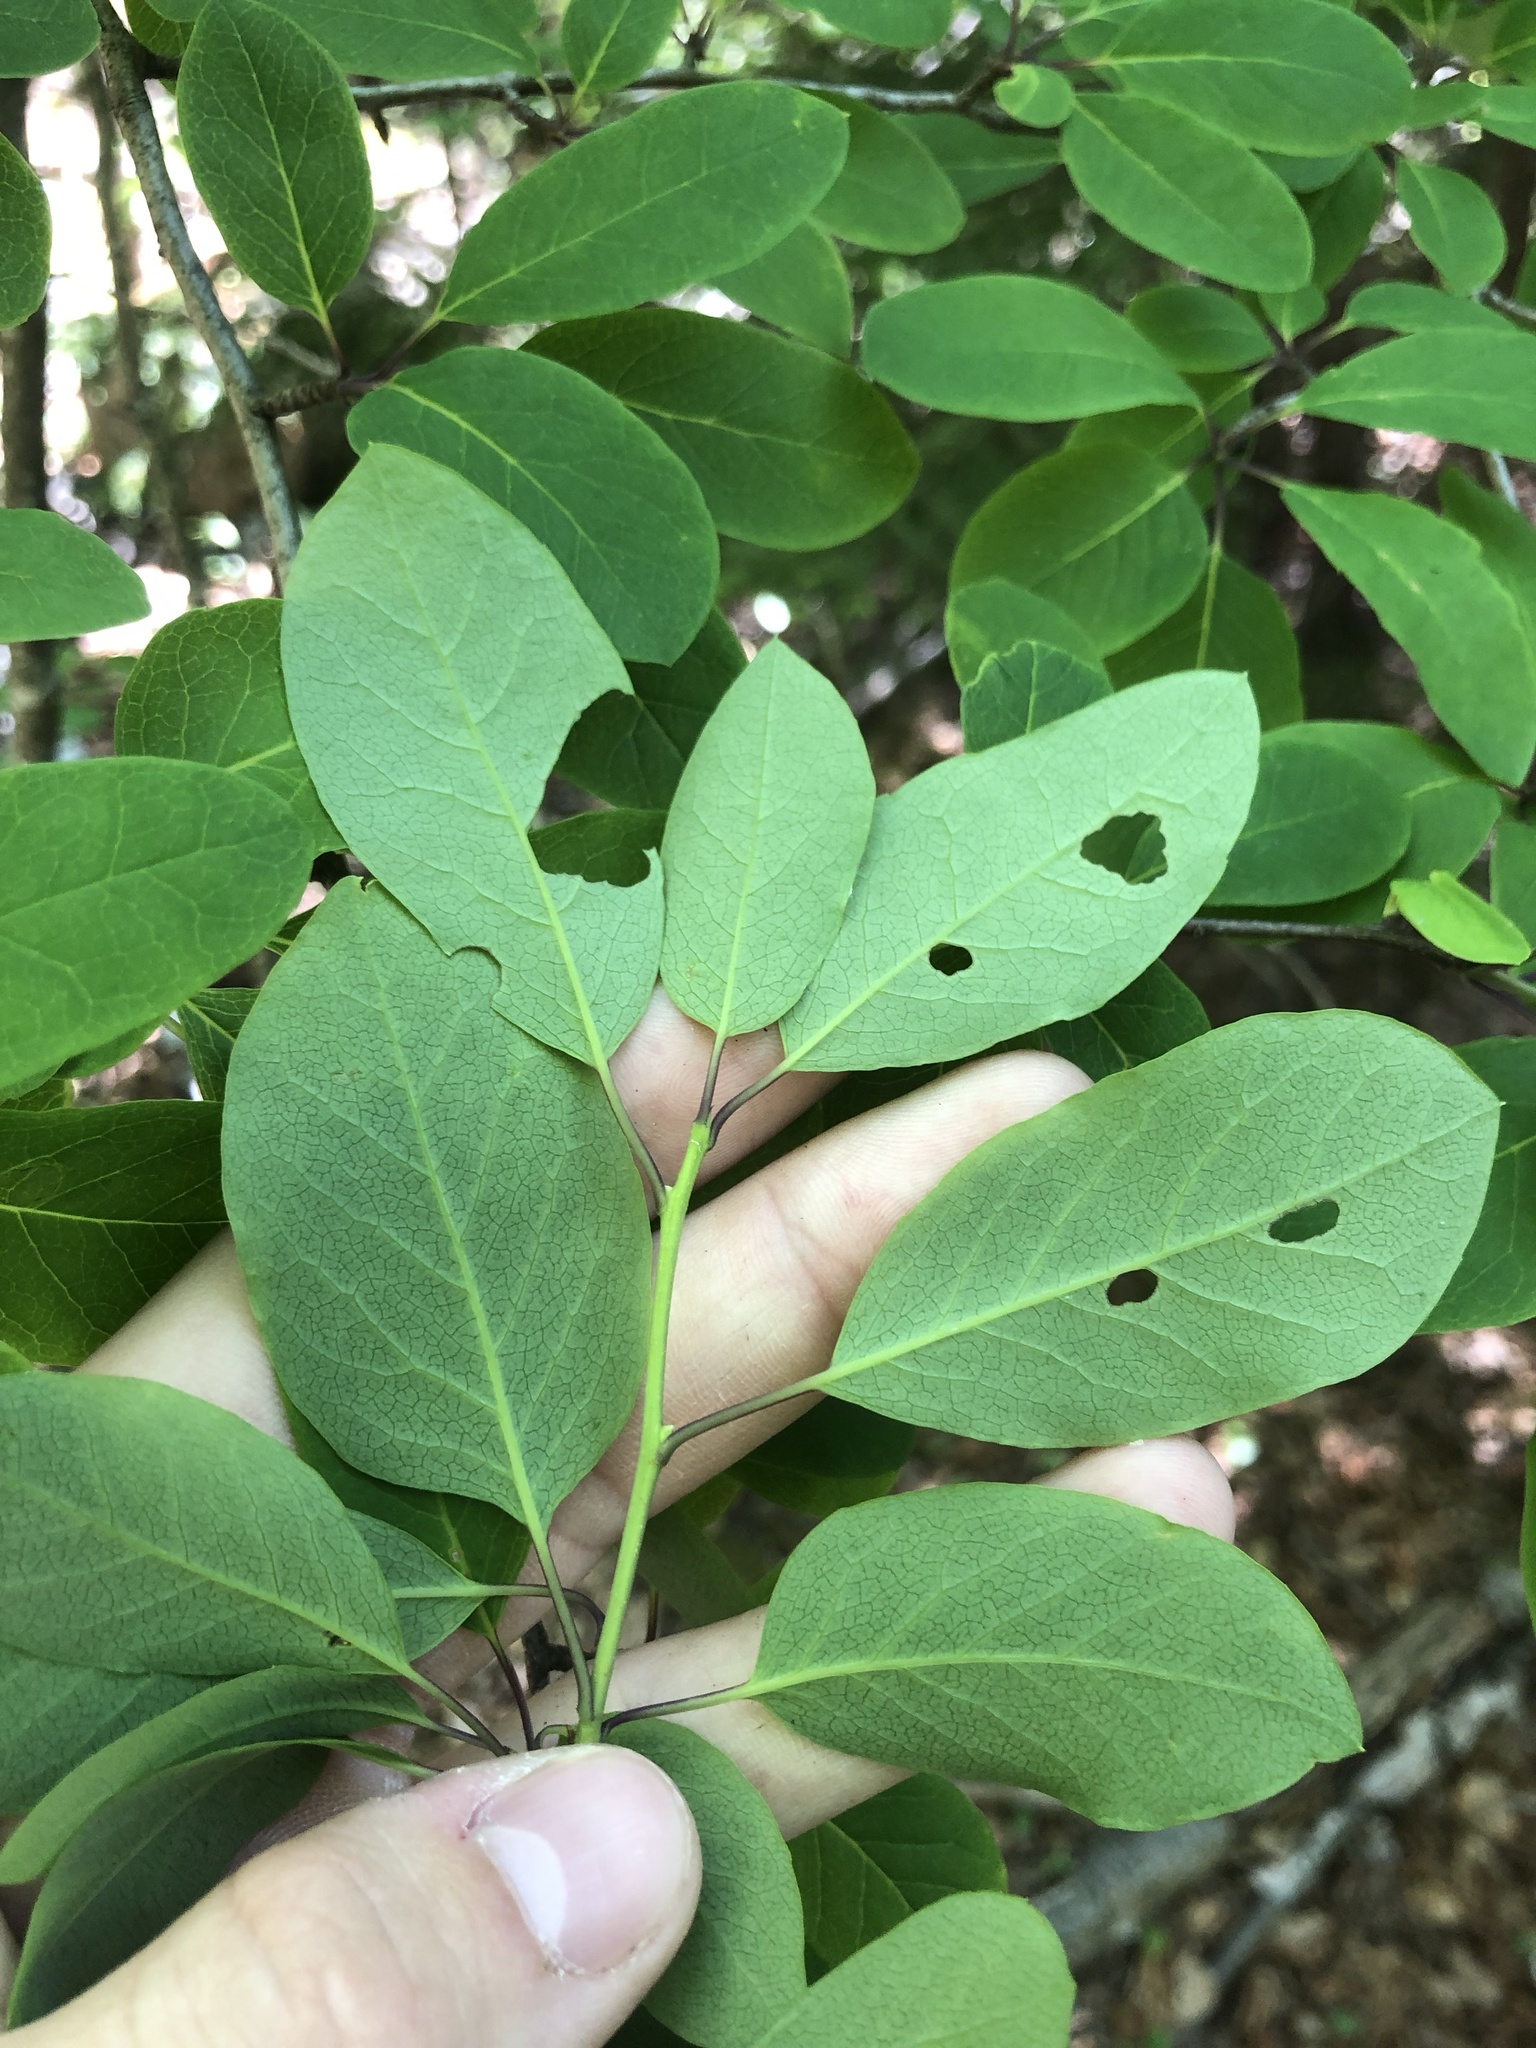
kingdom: Plantae
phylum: Tracheophyta
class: Magnoliopsida
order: Aquifoliales
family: Aquifoliaceae
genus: Ilex
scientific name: Ilex mucronata
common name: Catberry
